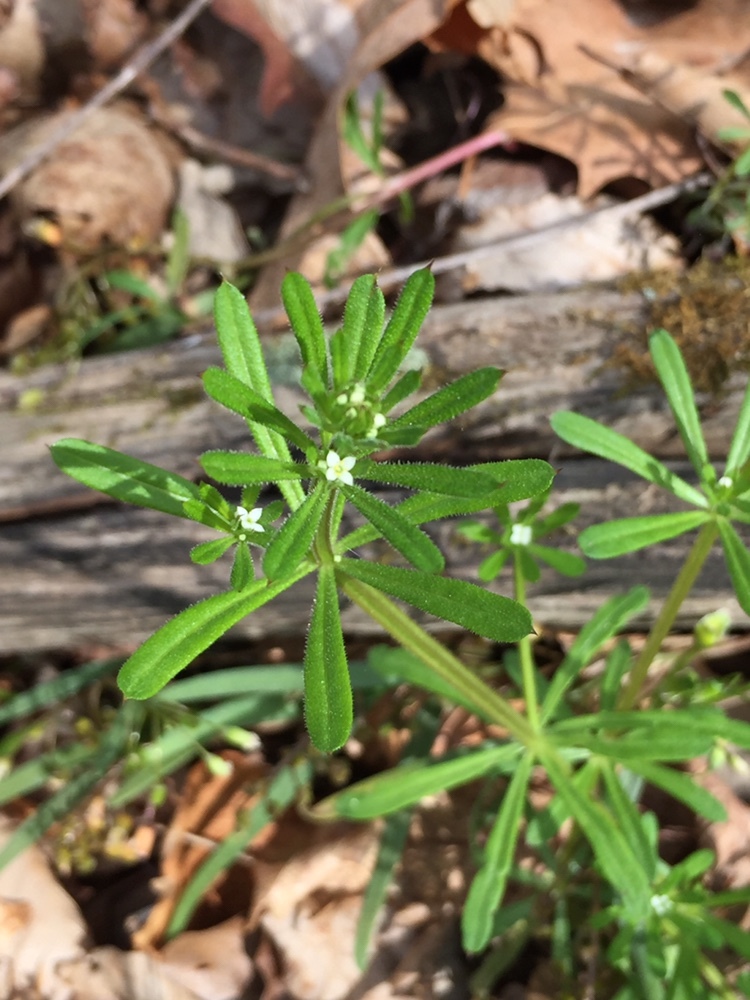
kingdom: Plantae
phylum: Tracheophyta
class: Magnoliopsida
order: Gentianales
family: Rubiaceae
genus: Galium
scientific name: Galium aparine
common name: Cleavers
